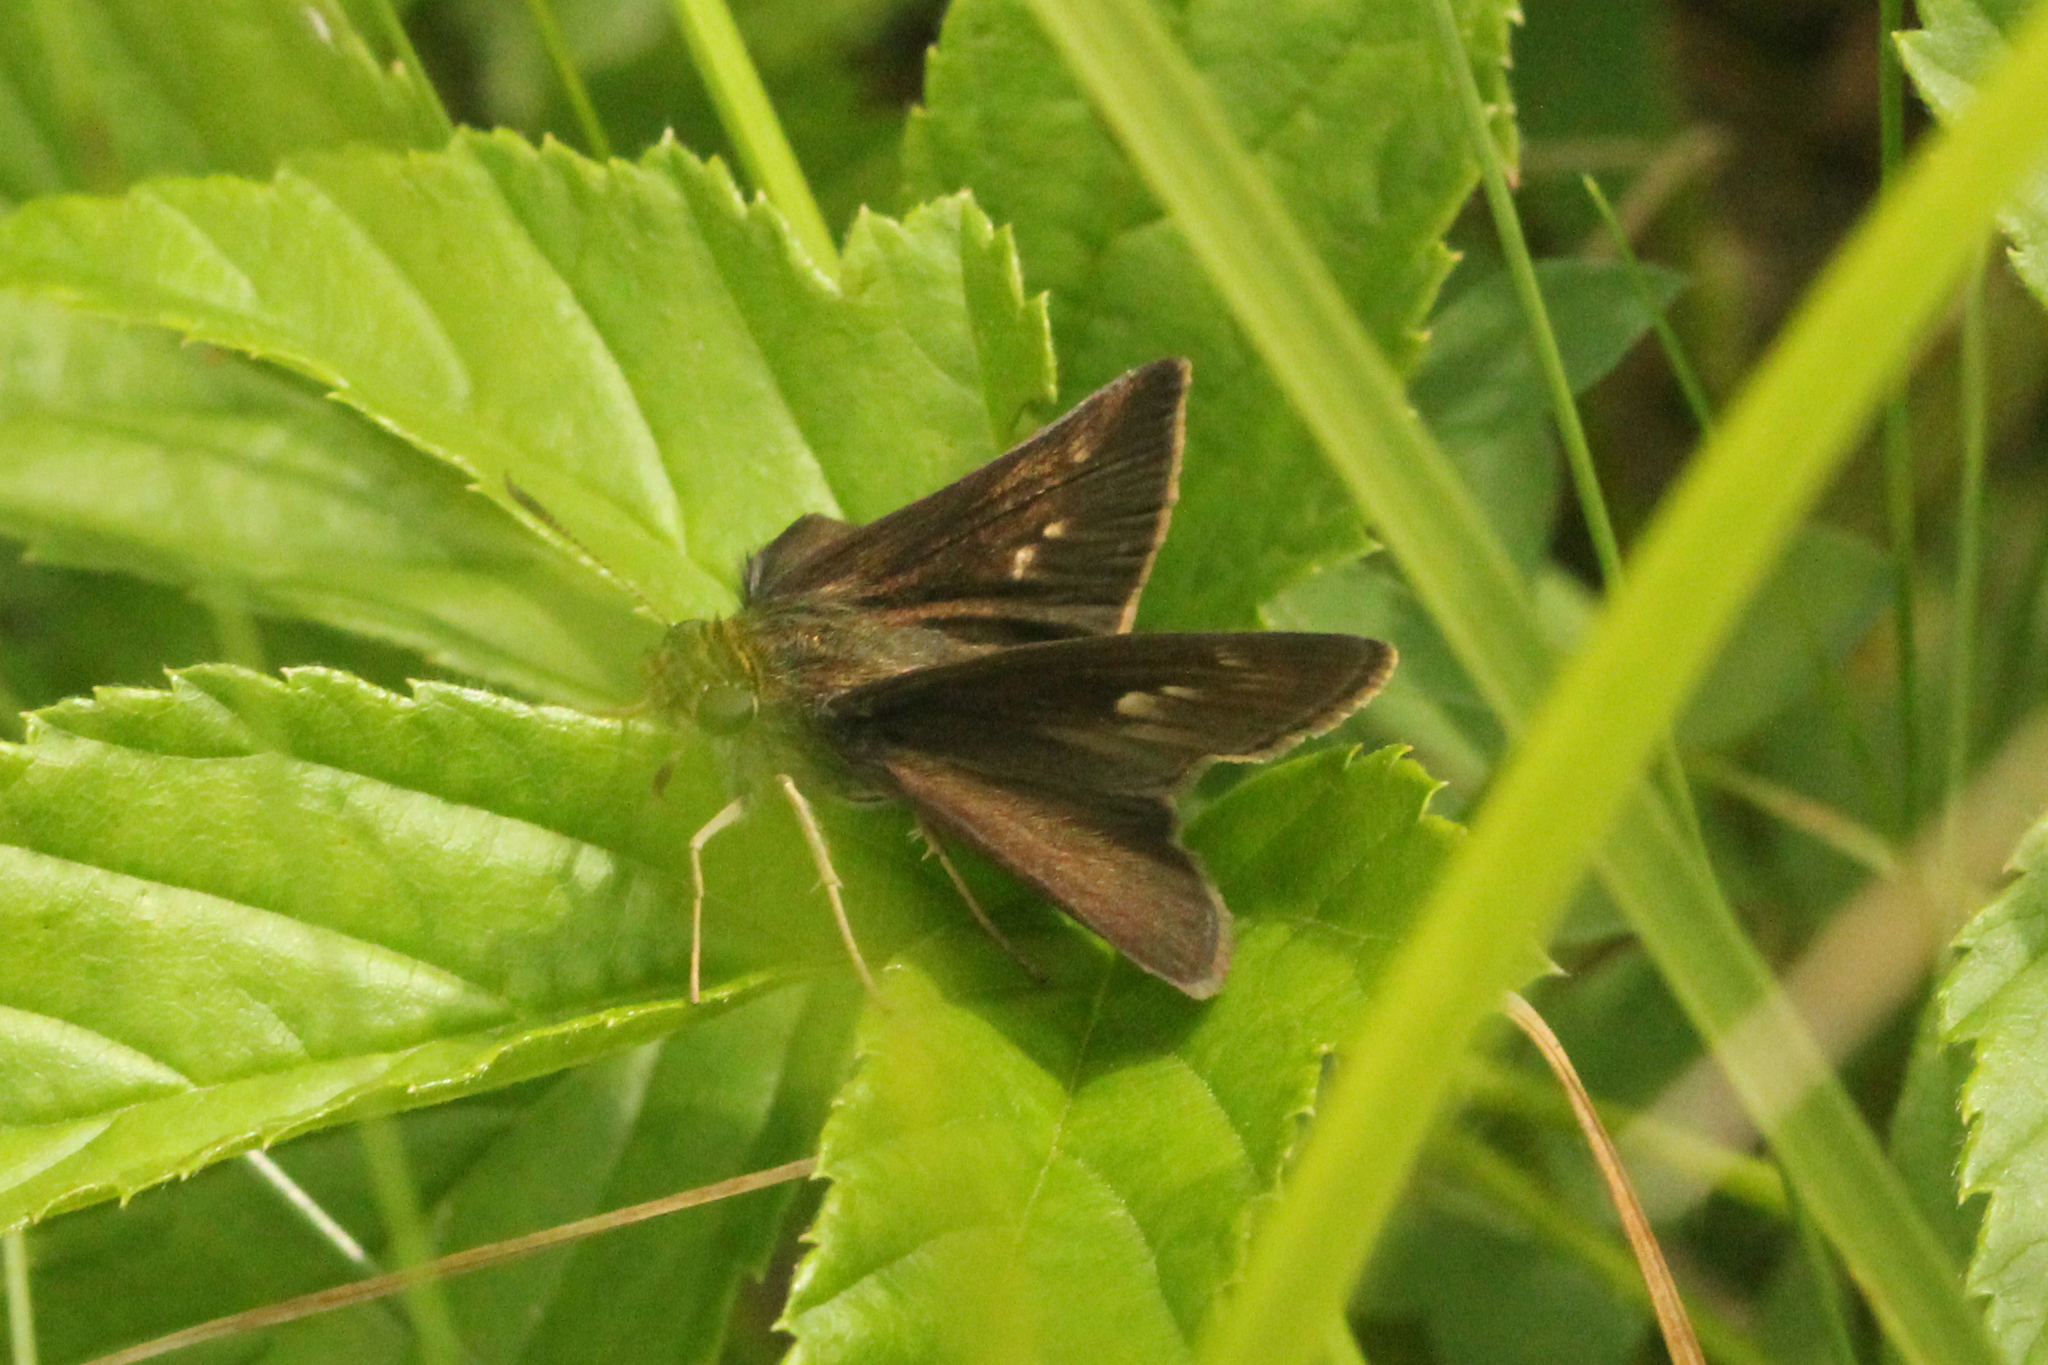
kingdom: Animalia
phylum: Arthropoda
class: Insecta
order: Lepidoptera
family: Hesperiidae
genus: Euphyes
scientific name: Euphyes vestris
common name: Dun skipper
